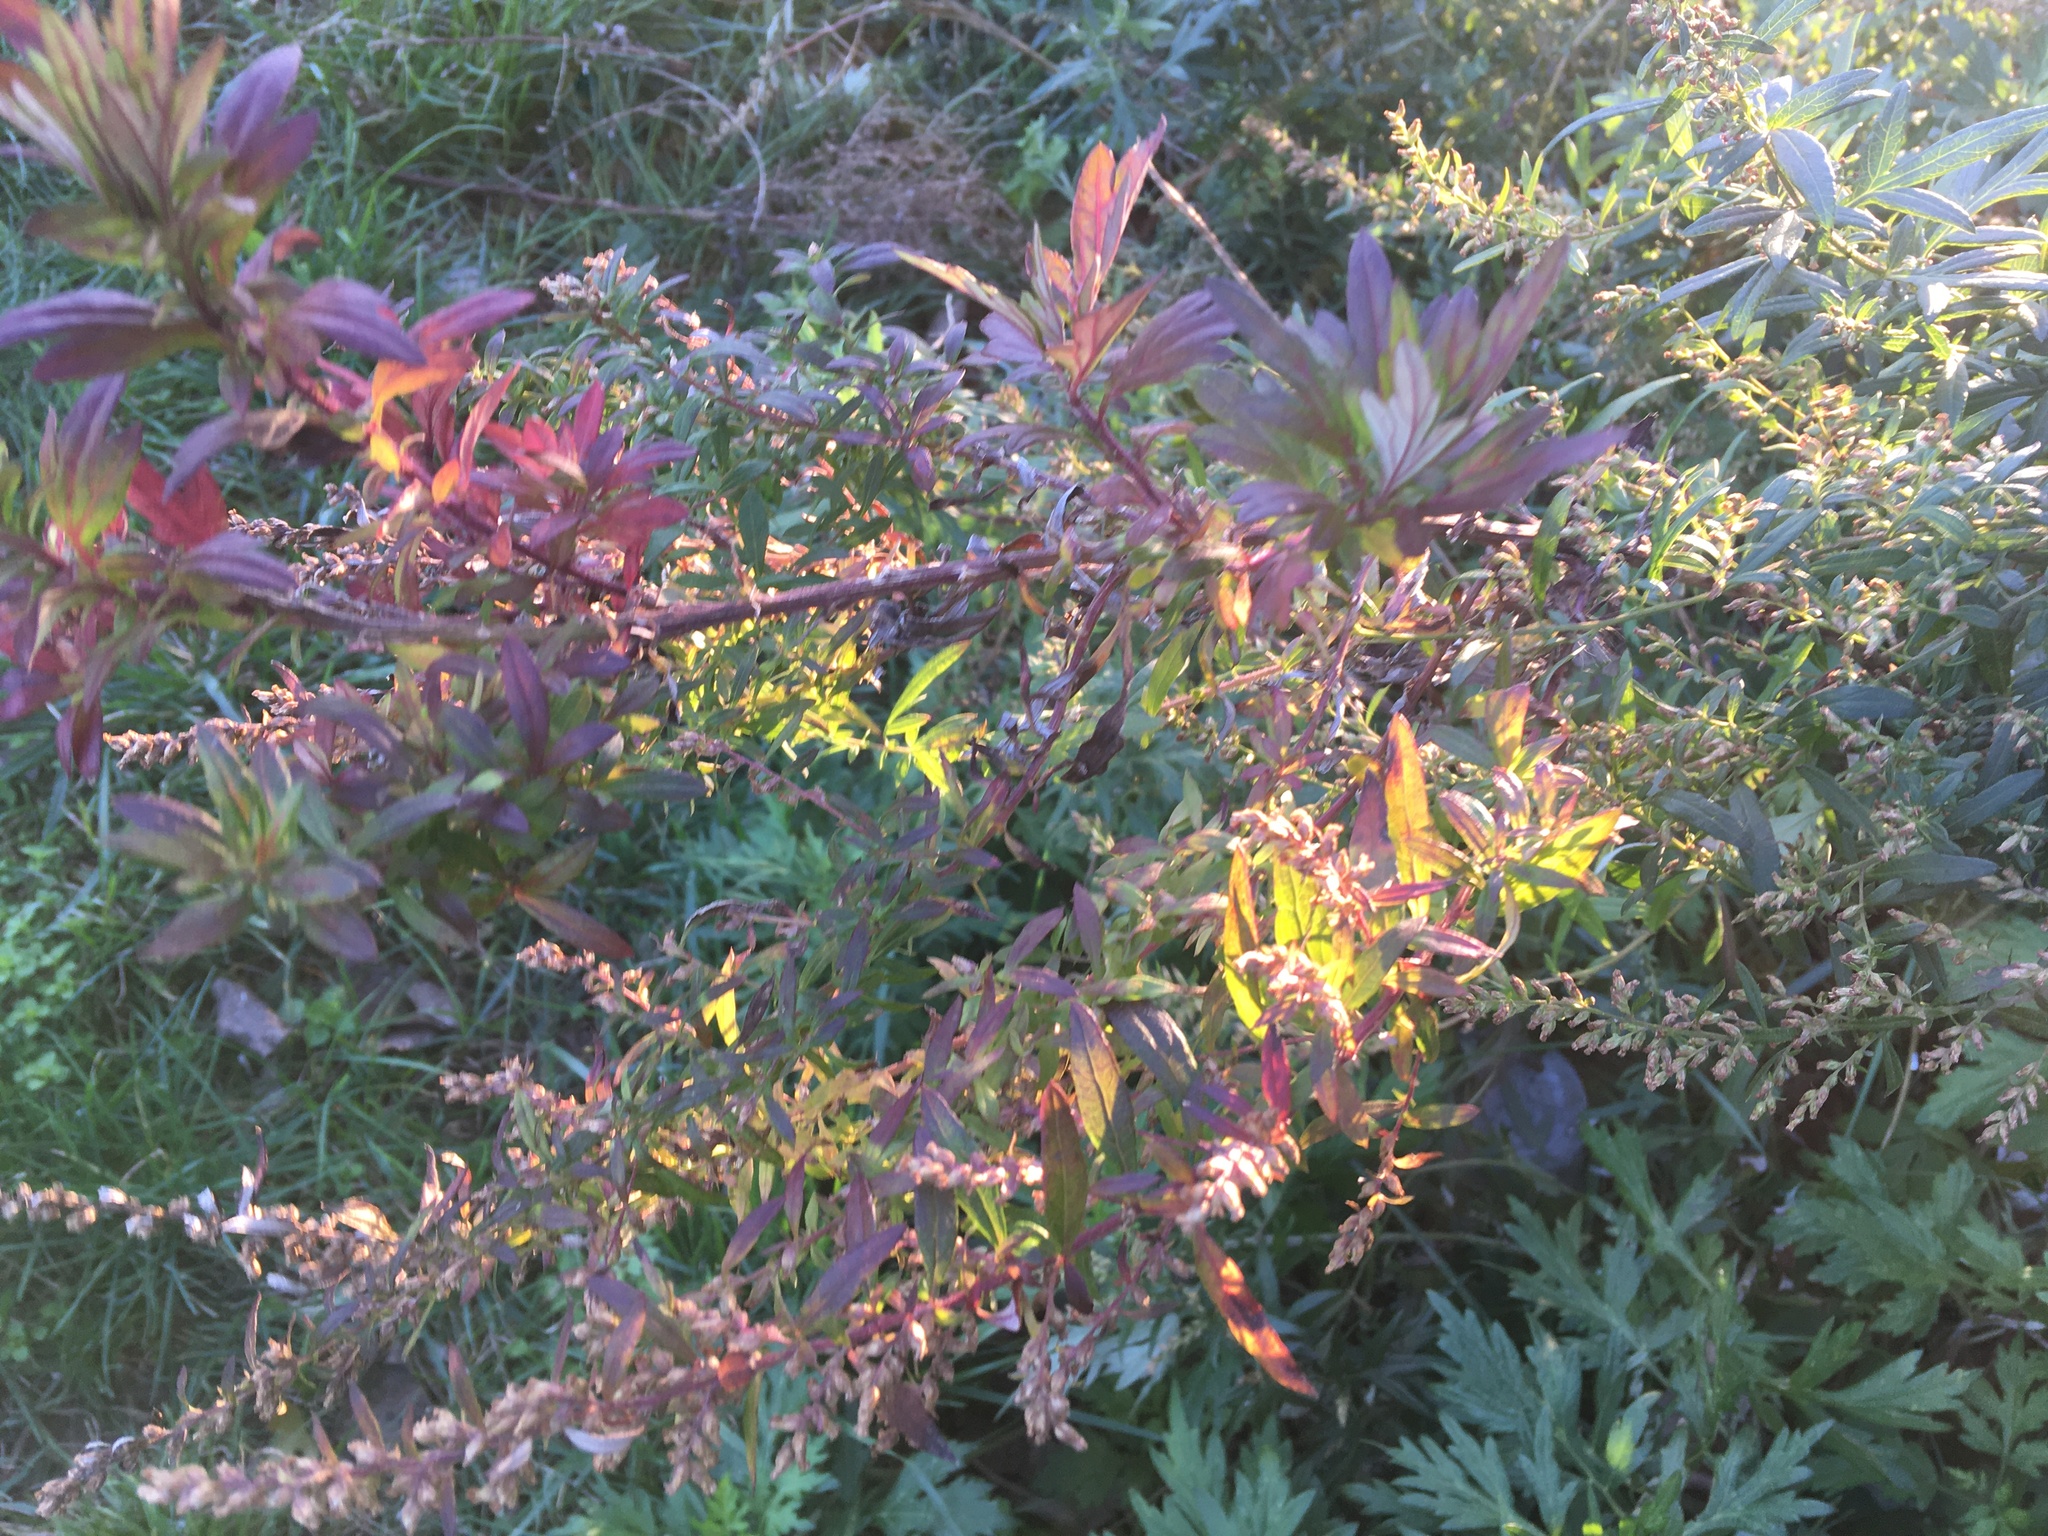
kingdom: Plantae
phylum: Tracheophyta
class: Magnoliopsida
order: Asterales
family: Asteraceae
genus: Artemisia
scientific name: Artemisia vulgaris
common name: Mugwort
